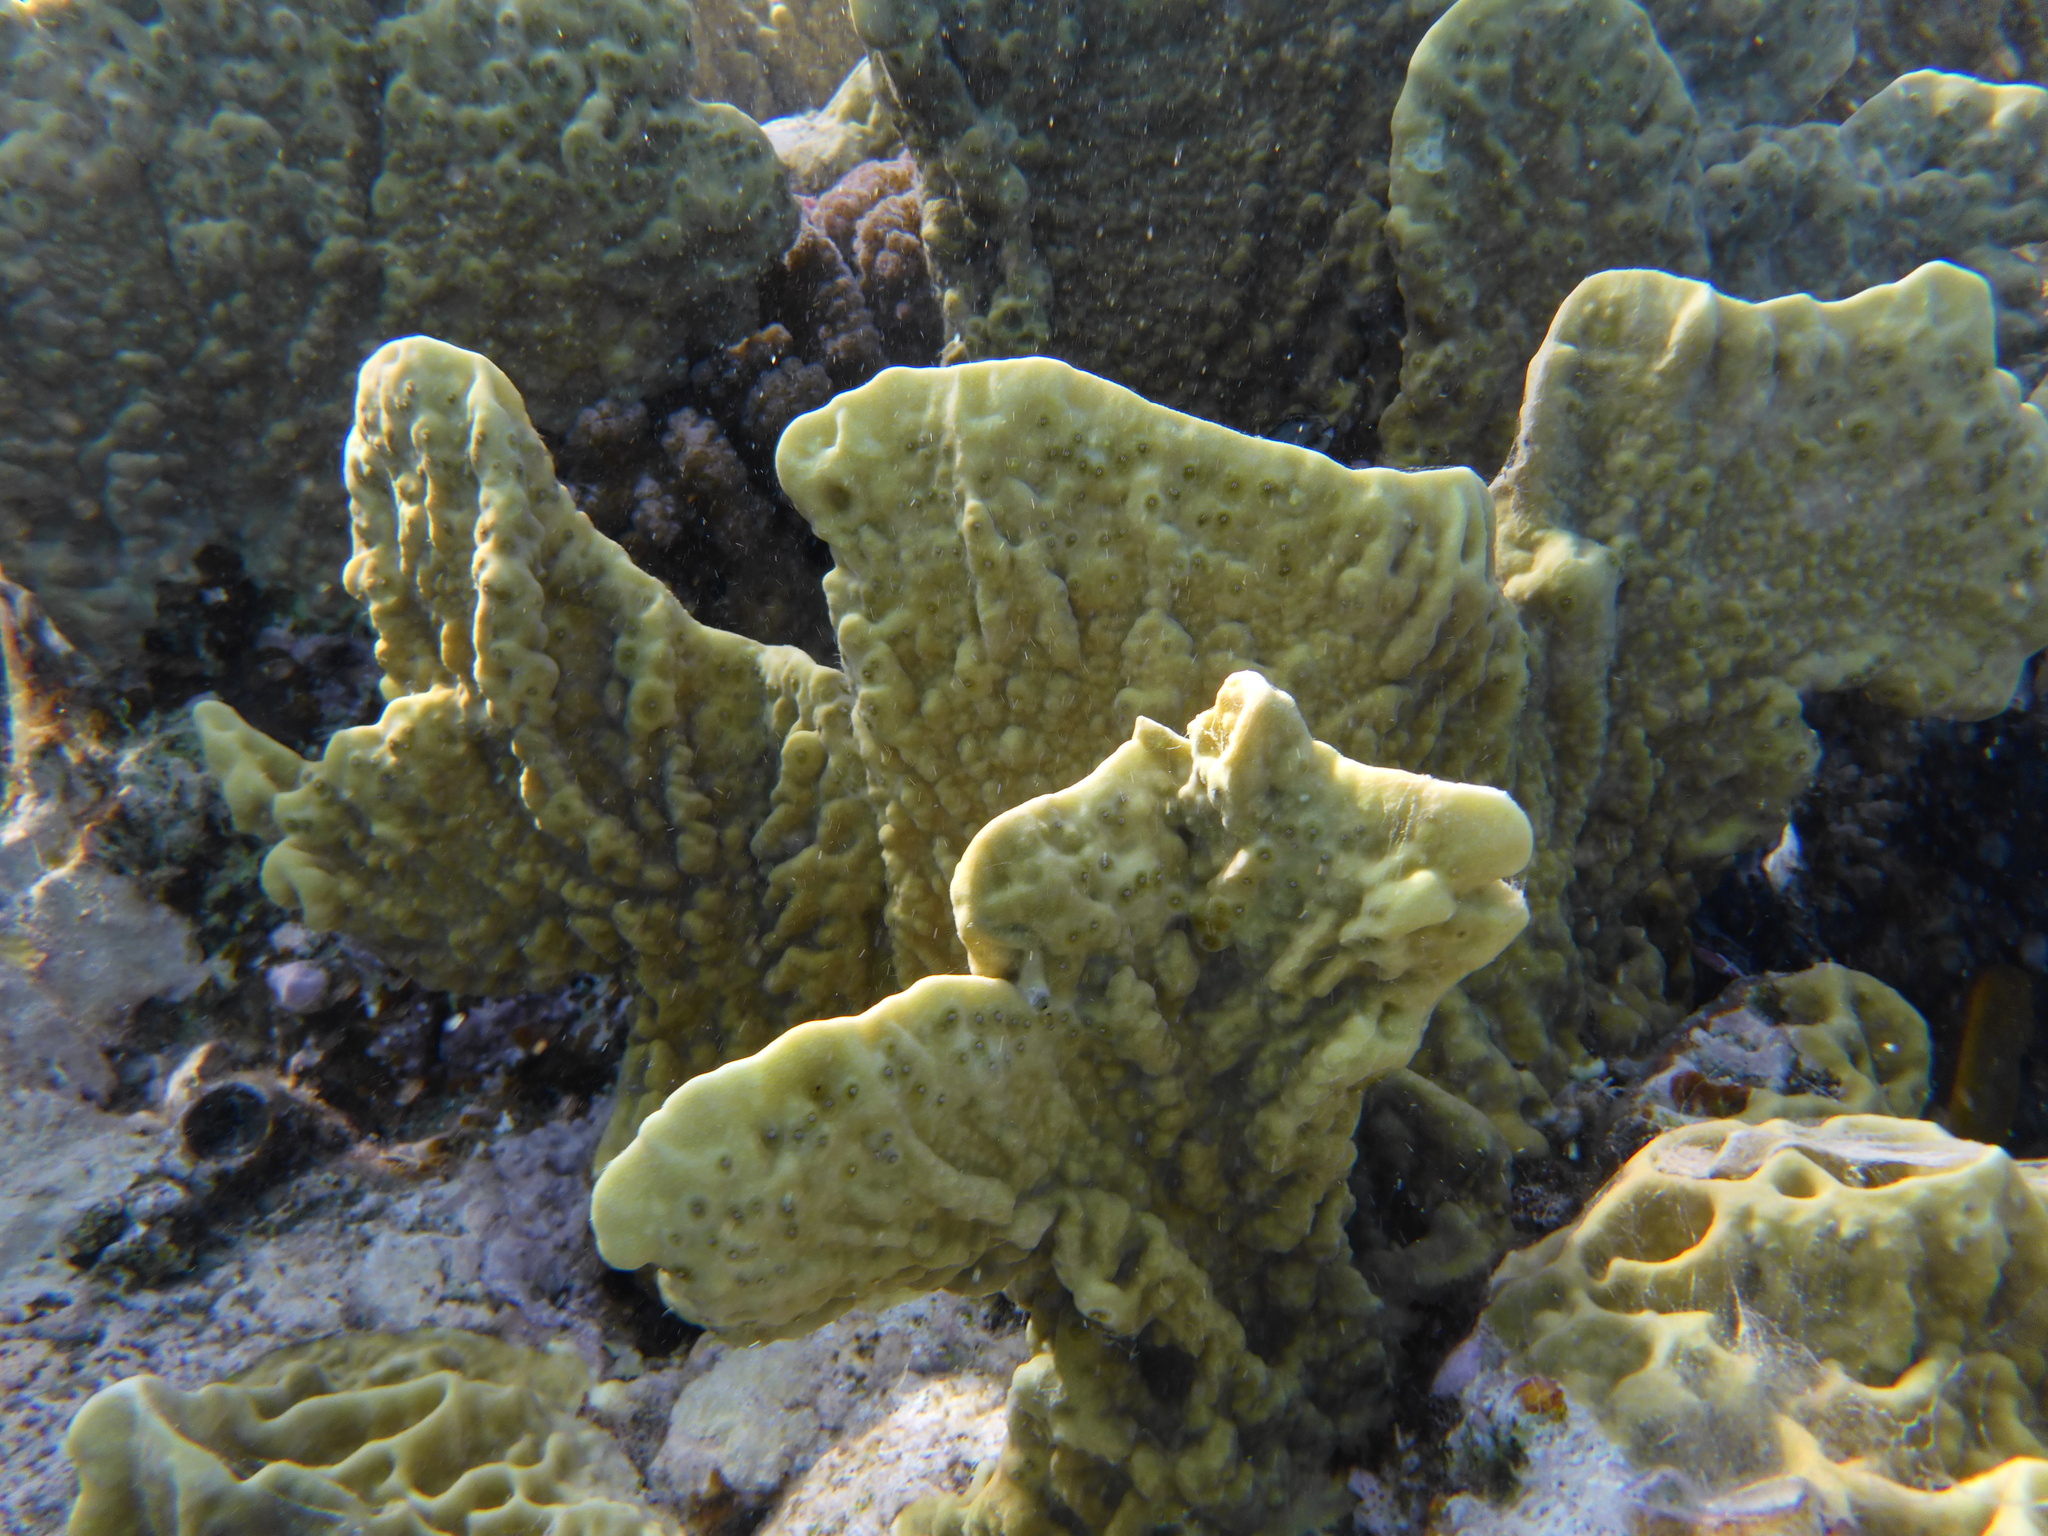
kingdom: Animalia
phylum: Cnidaria
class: Hydrozoa
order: Anthoathecata
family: Milleporidae
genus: Millepora
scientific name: Millepora platyphylla
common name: Sheet fire coral
